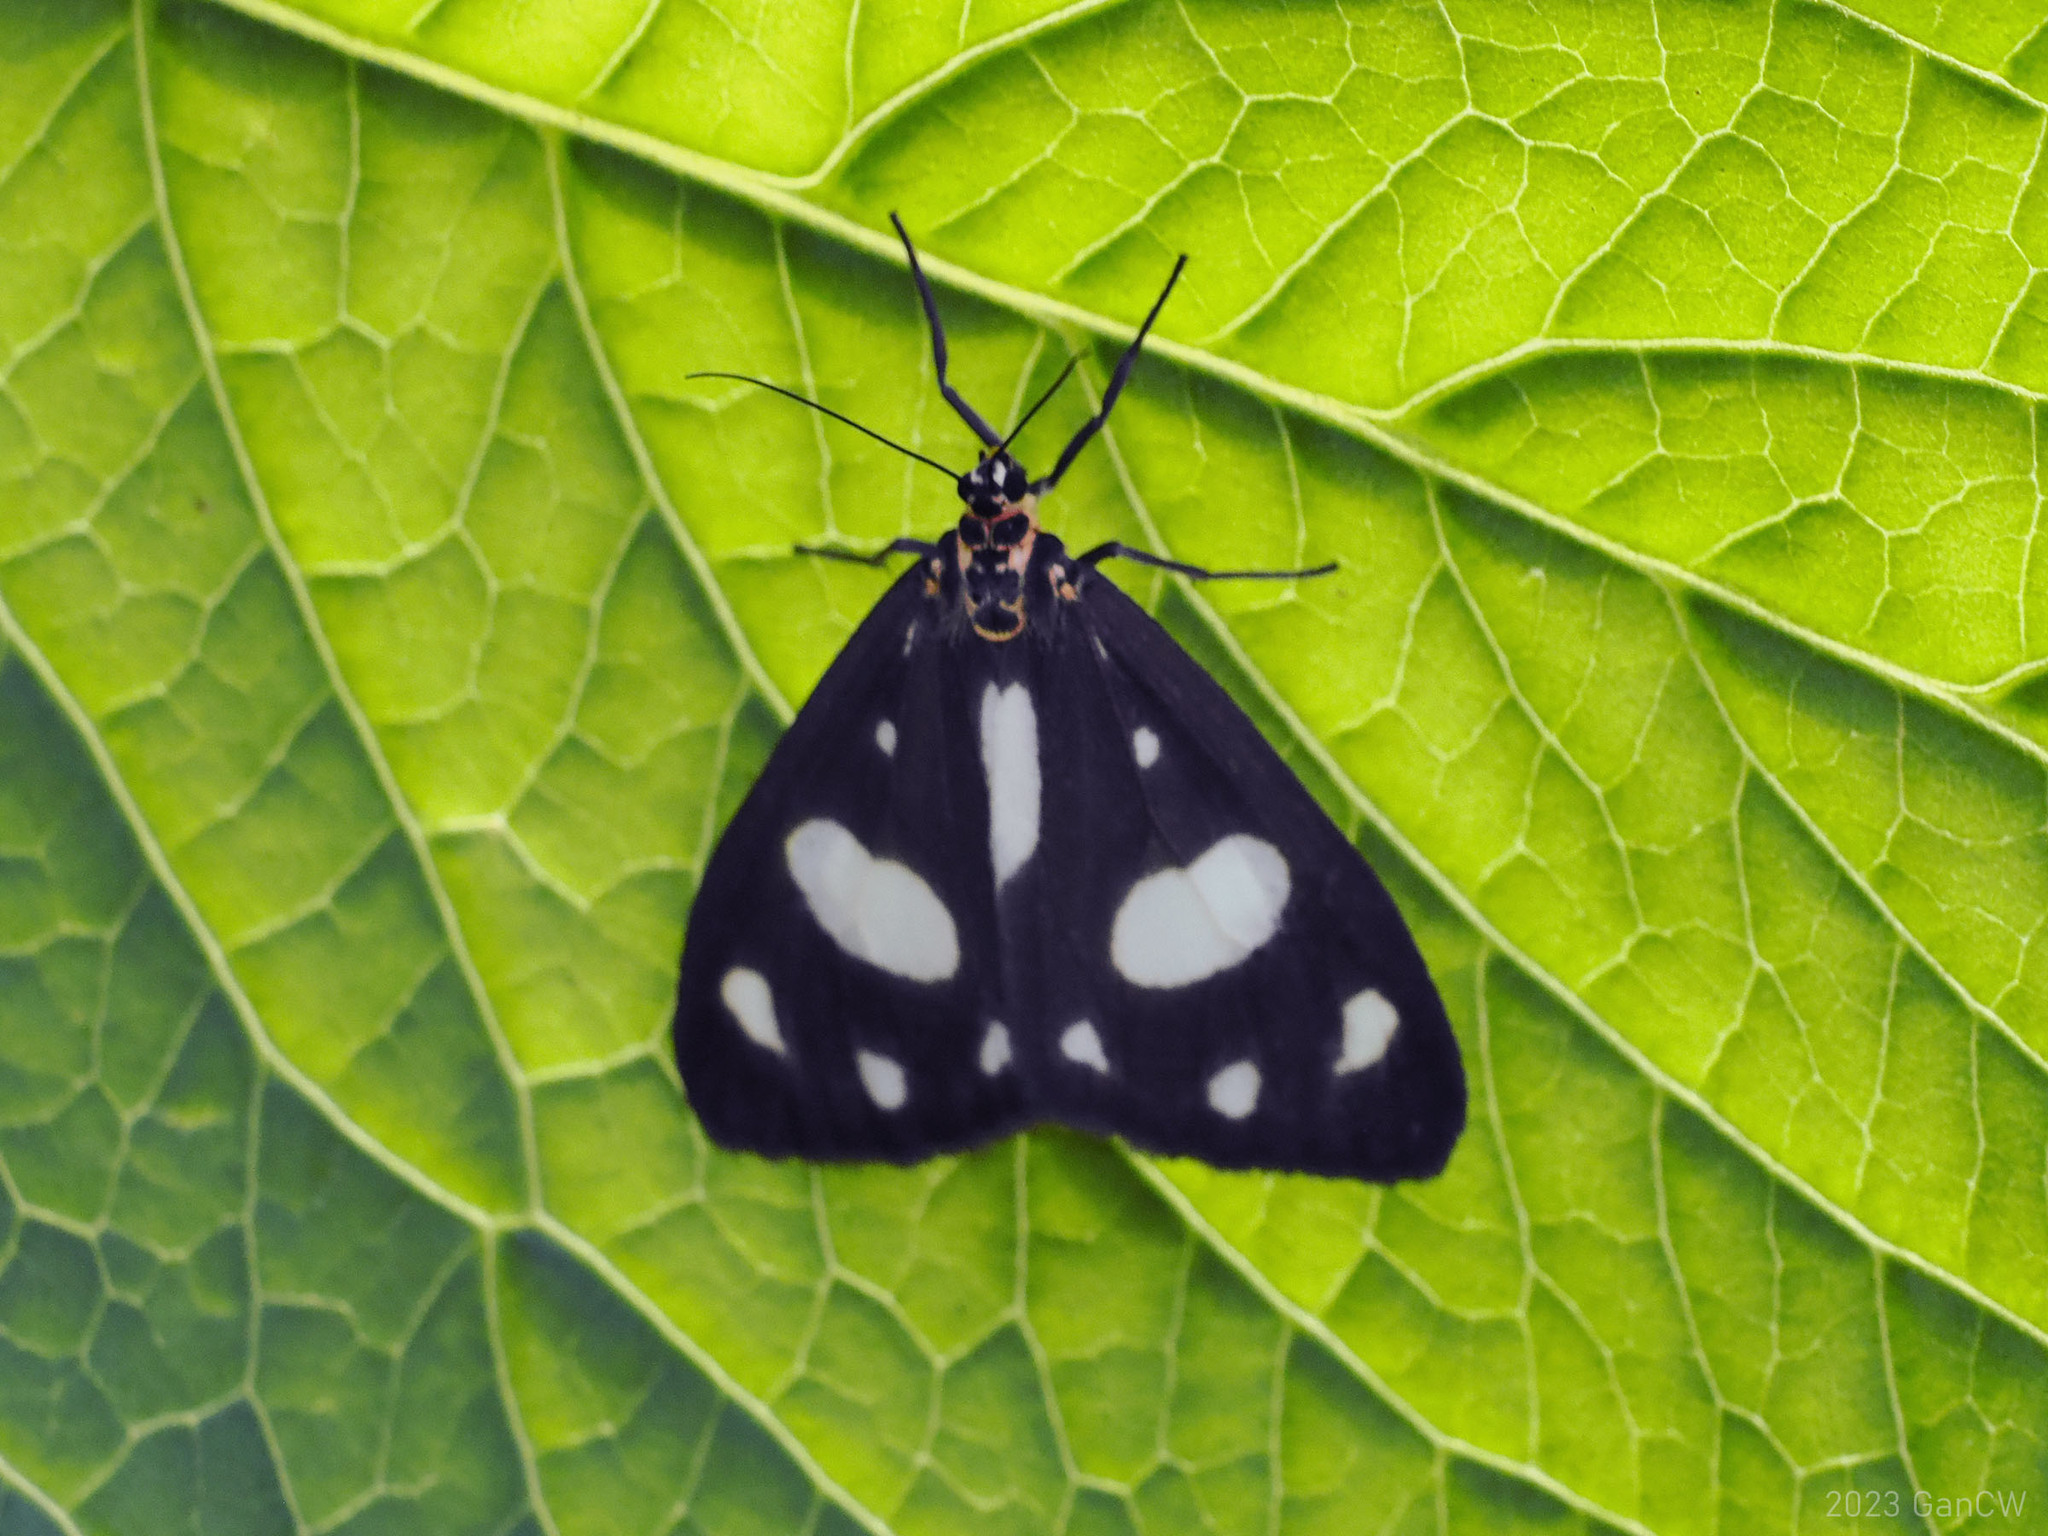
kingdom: Animalia
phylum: Arthropoda
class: Insecta
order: Lepidoptera
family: Erebidae
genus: Utetheisa
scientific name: Utetheisa pellex
